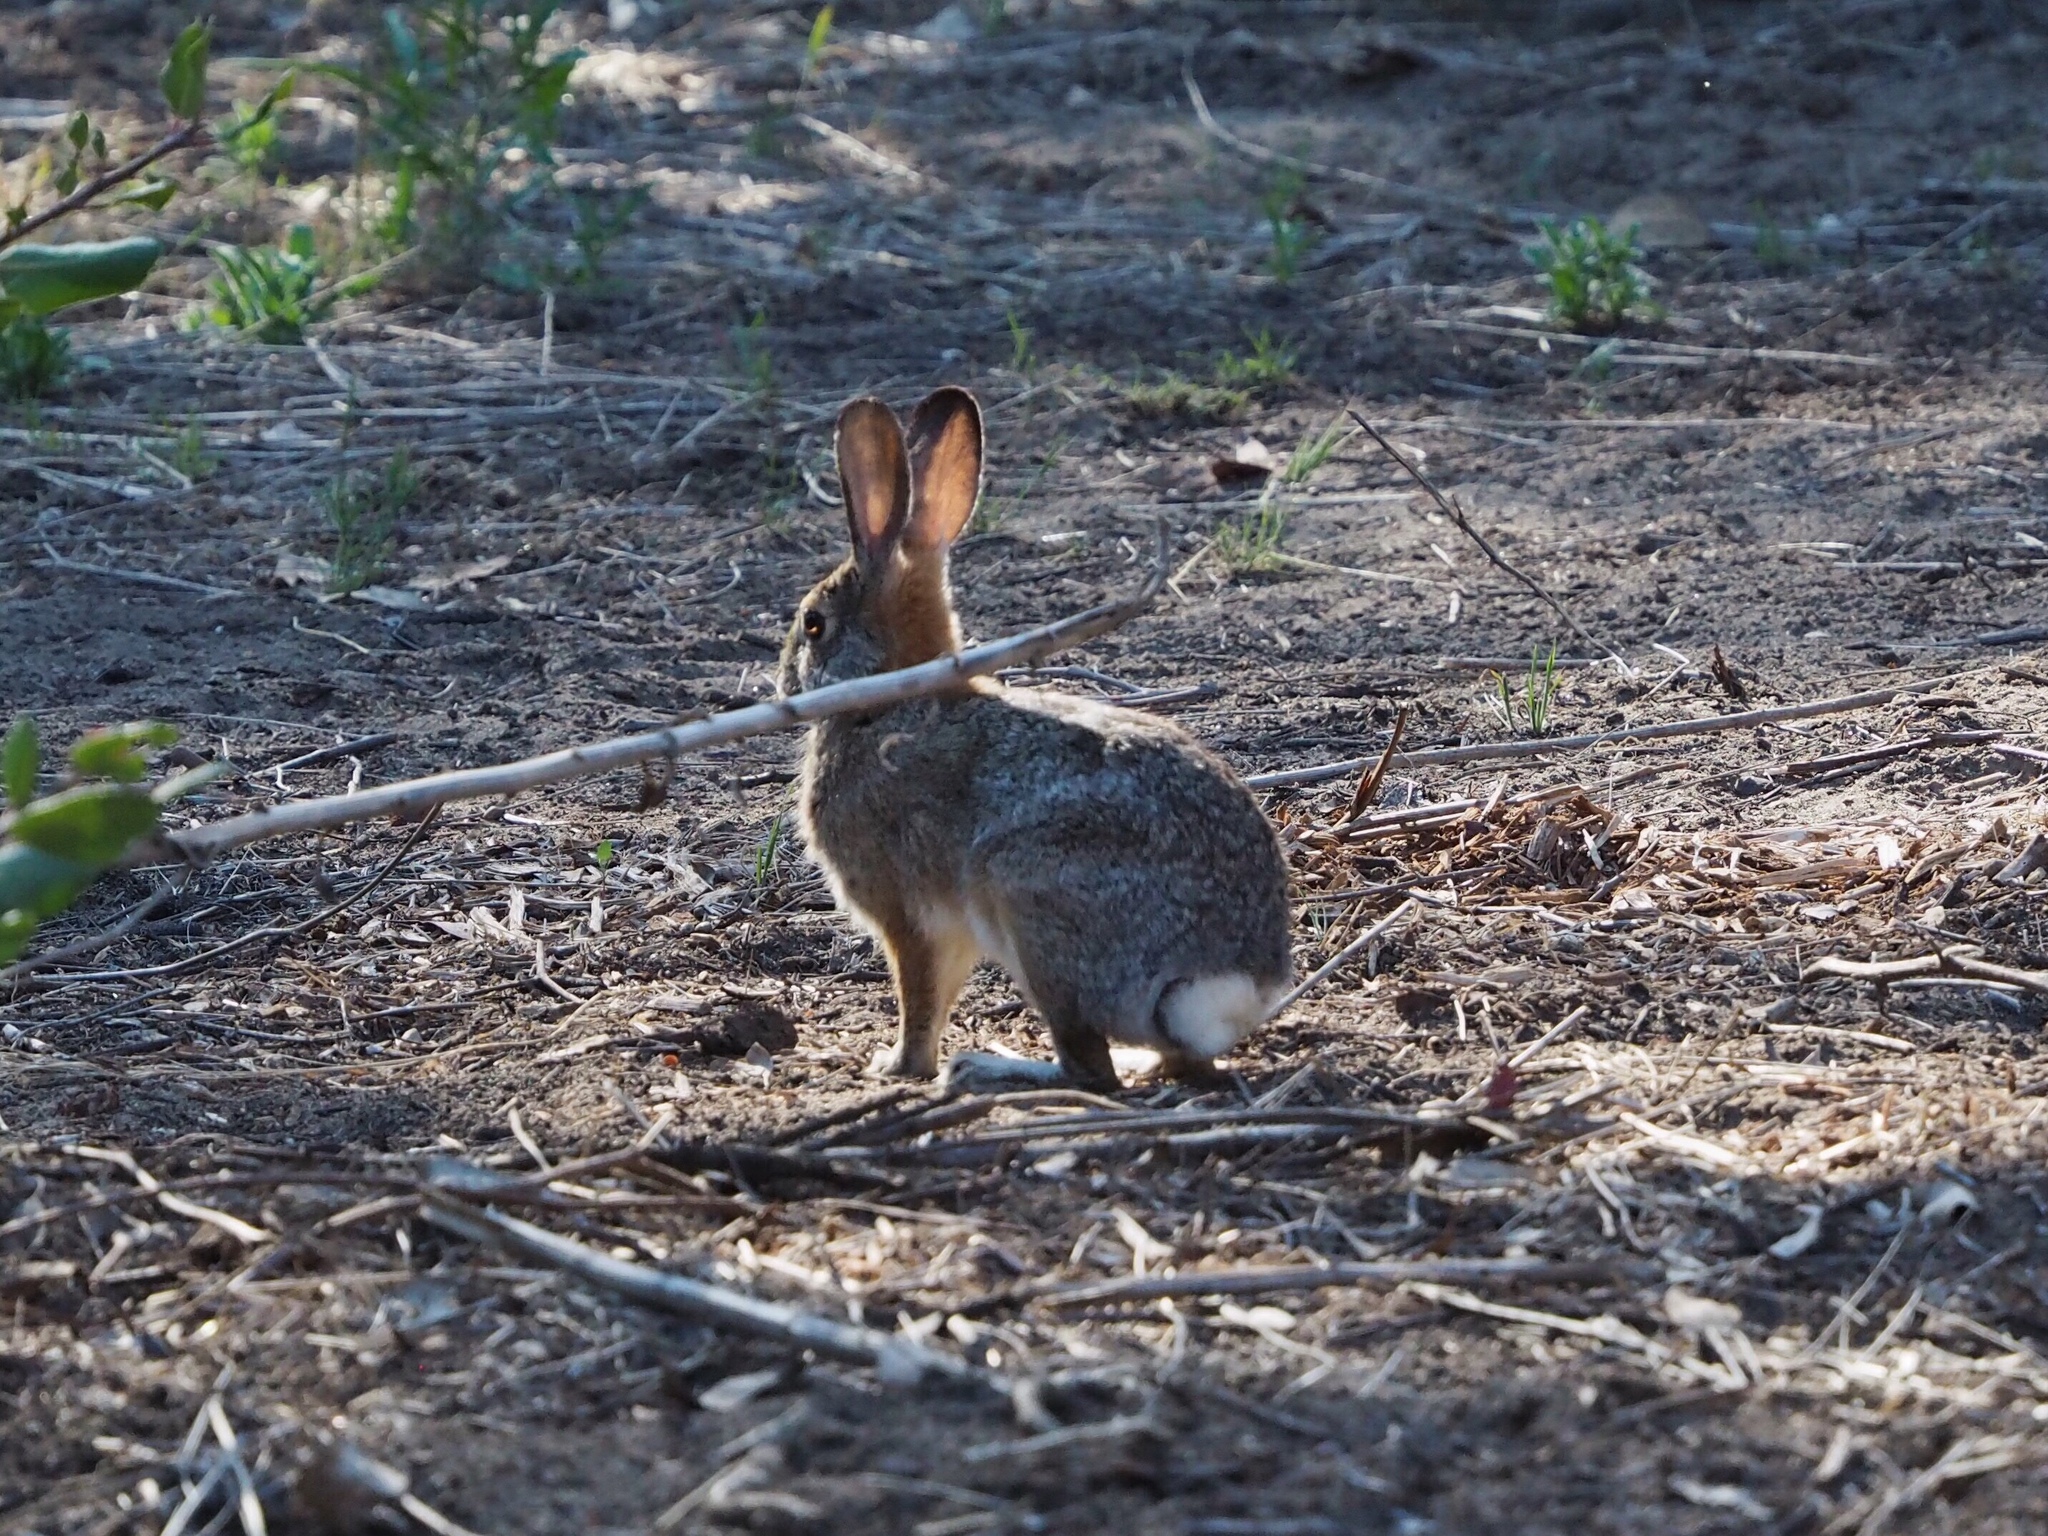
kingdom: Animalia
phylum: Chordata
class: Mammalia
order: Lagomorpha
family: Leporidae
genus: Sylvilagus
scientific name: Sylvilagus audubonii
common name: Desert cottontail
